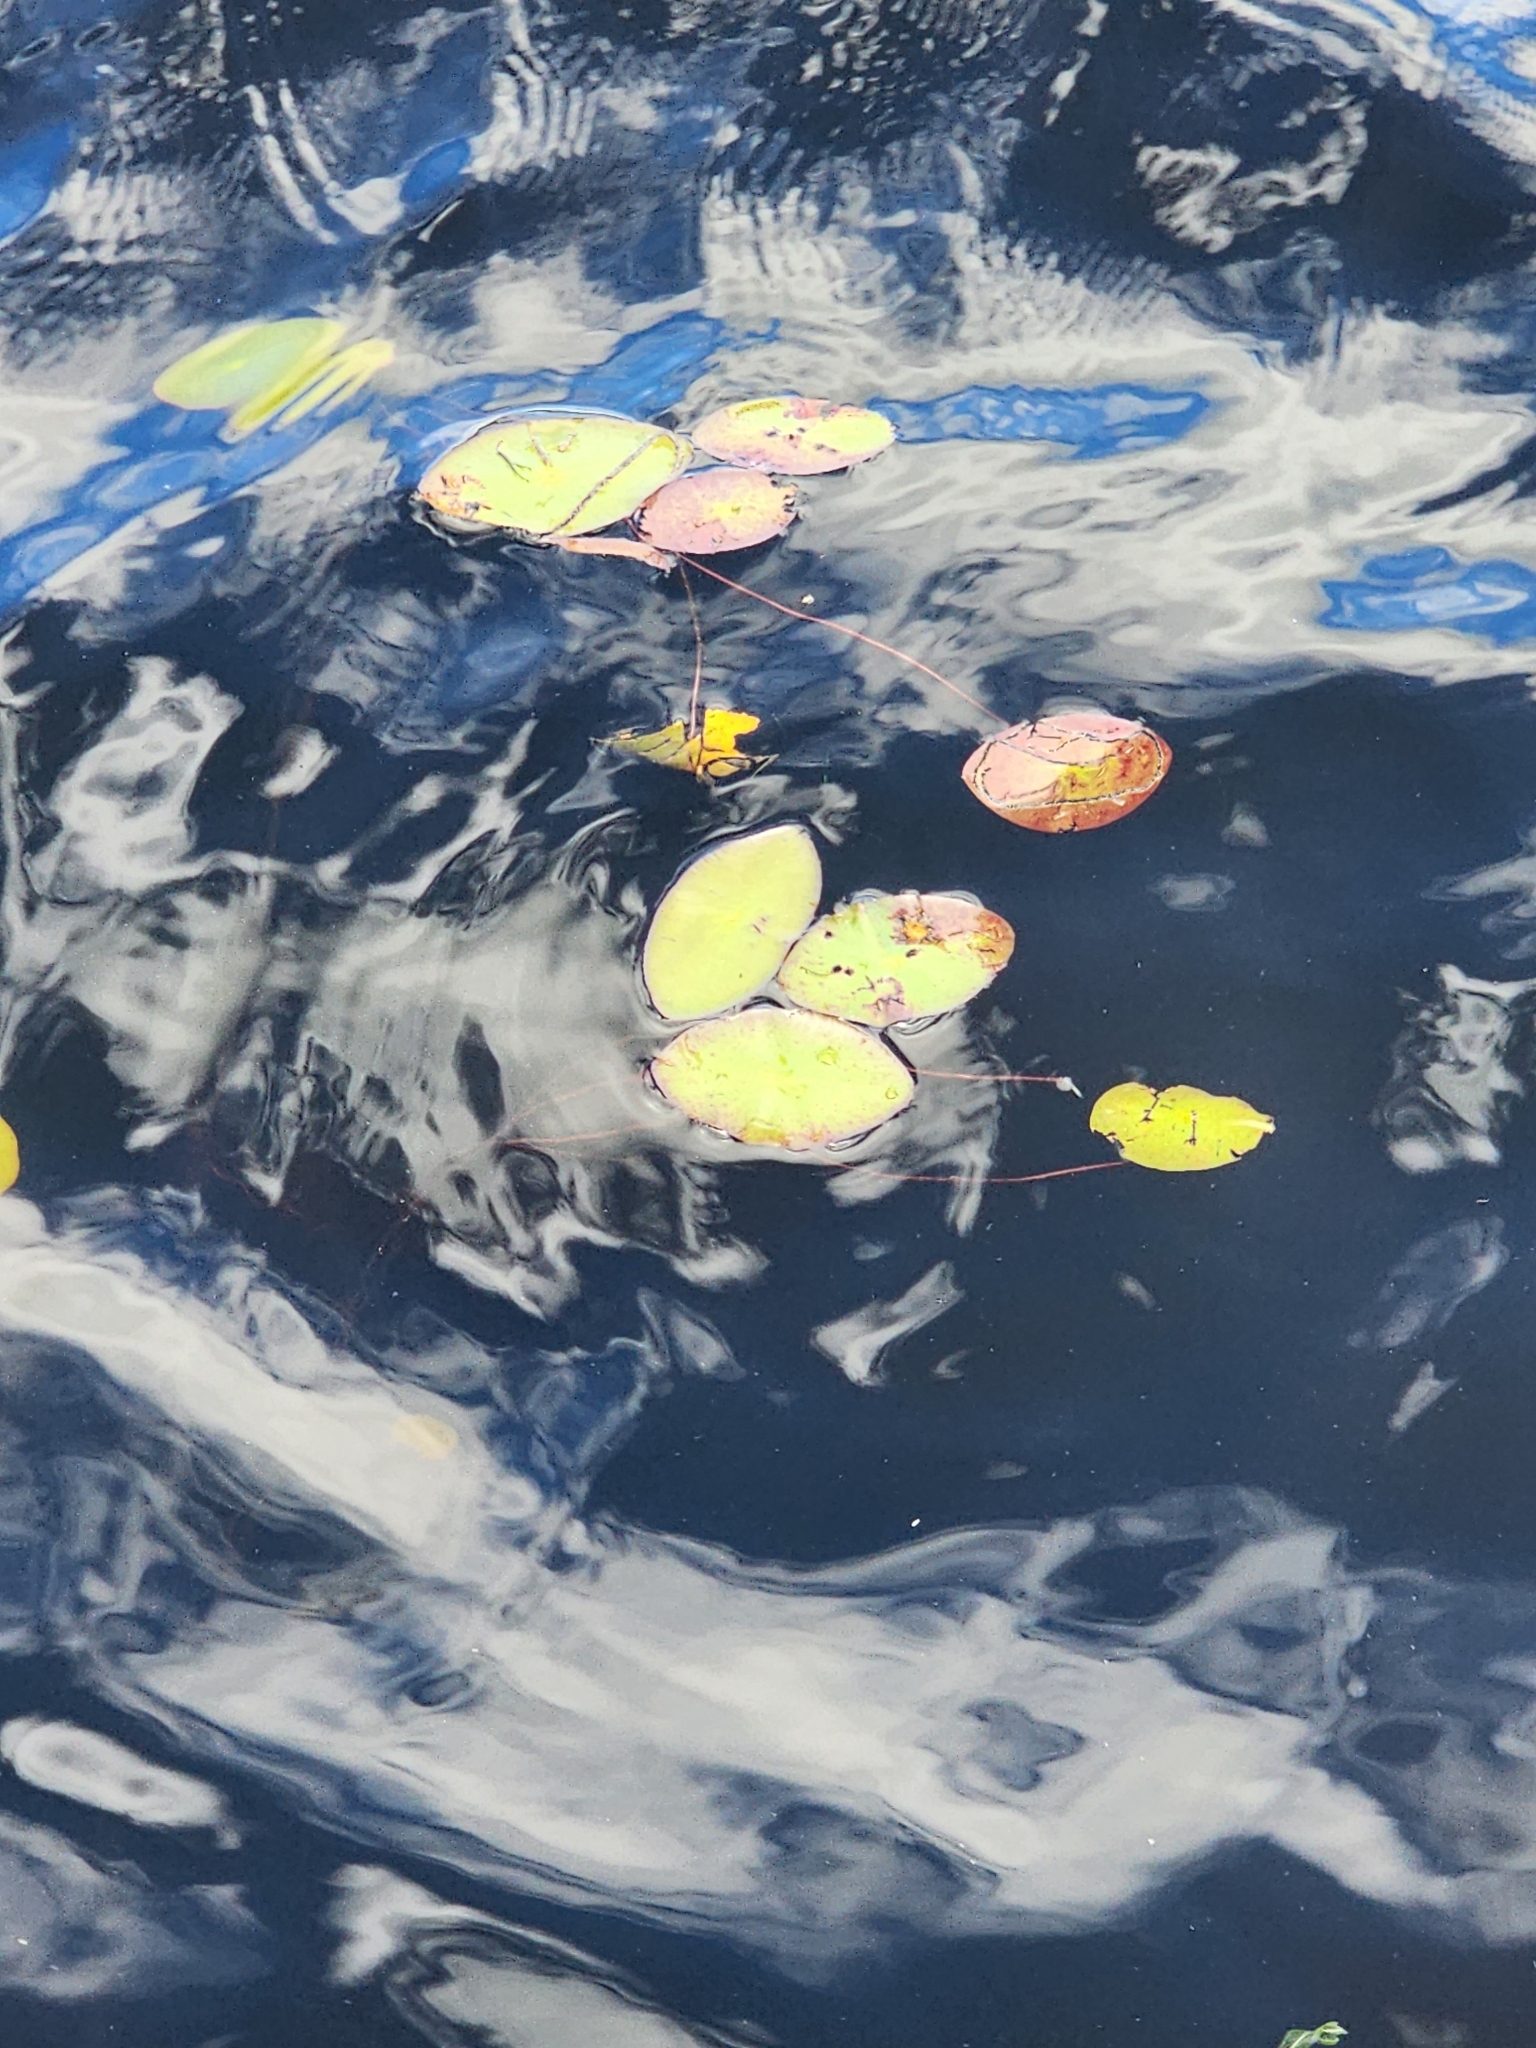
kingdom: Plantae
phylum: Tracheophyta
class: Magnoliopsida
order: Nymphaeales
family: Cabombaceae
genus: Brasenia
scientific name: Brasenia schreberi
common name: Water-shield
